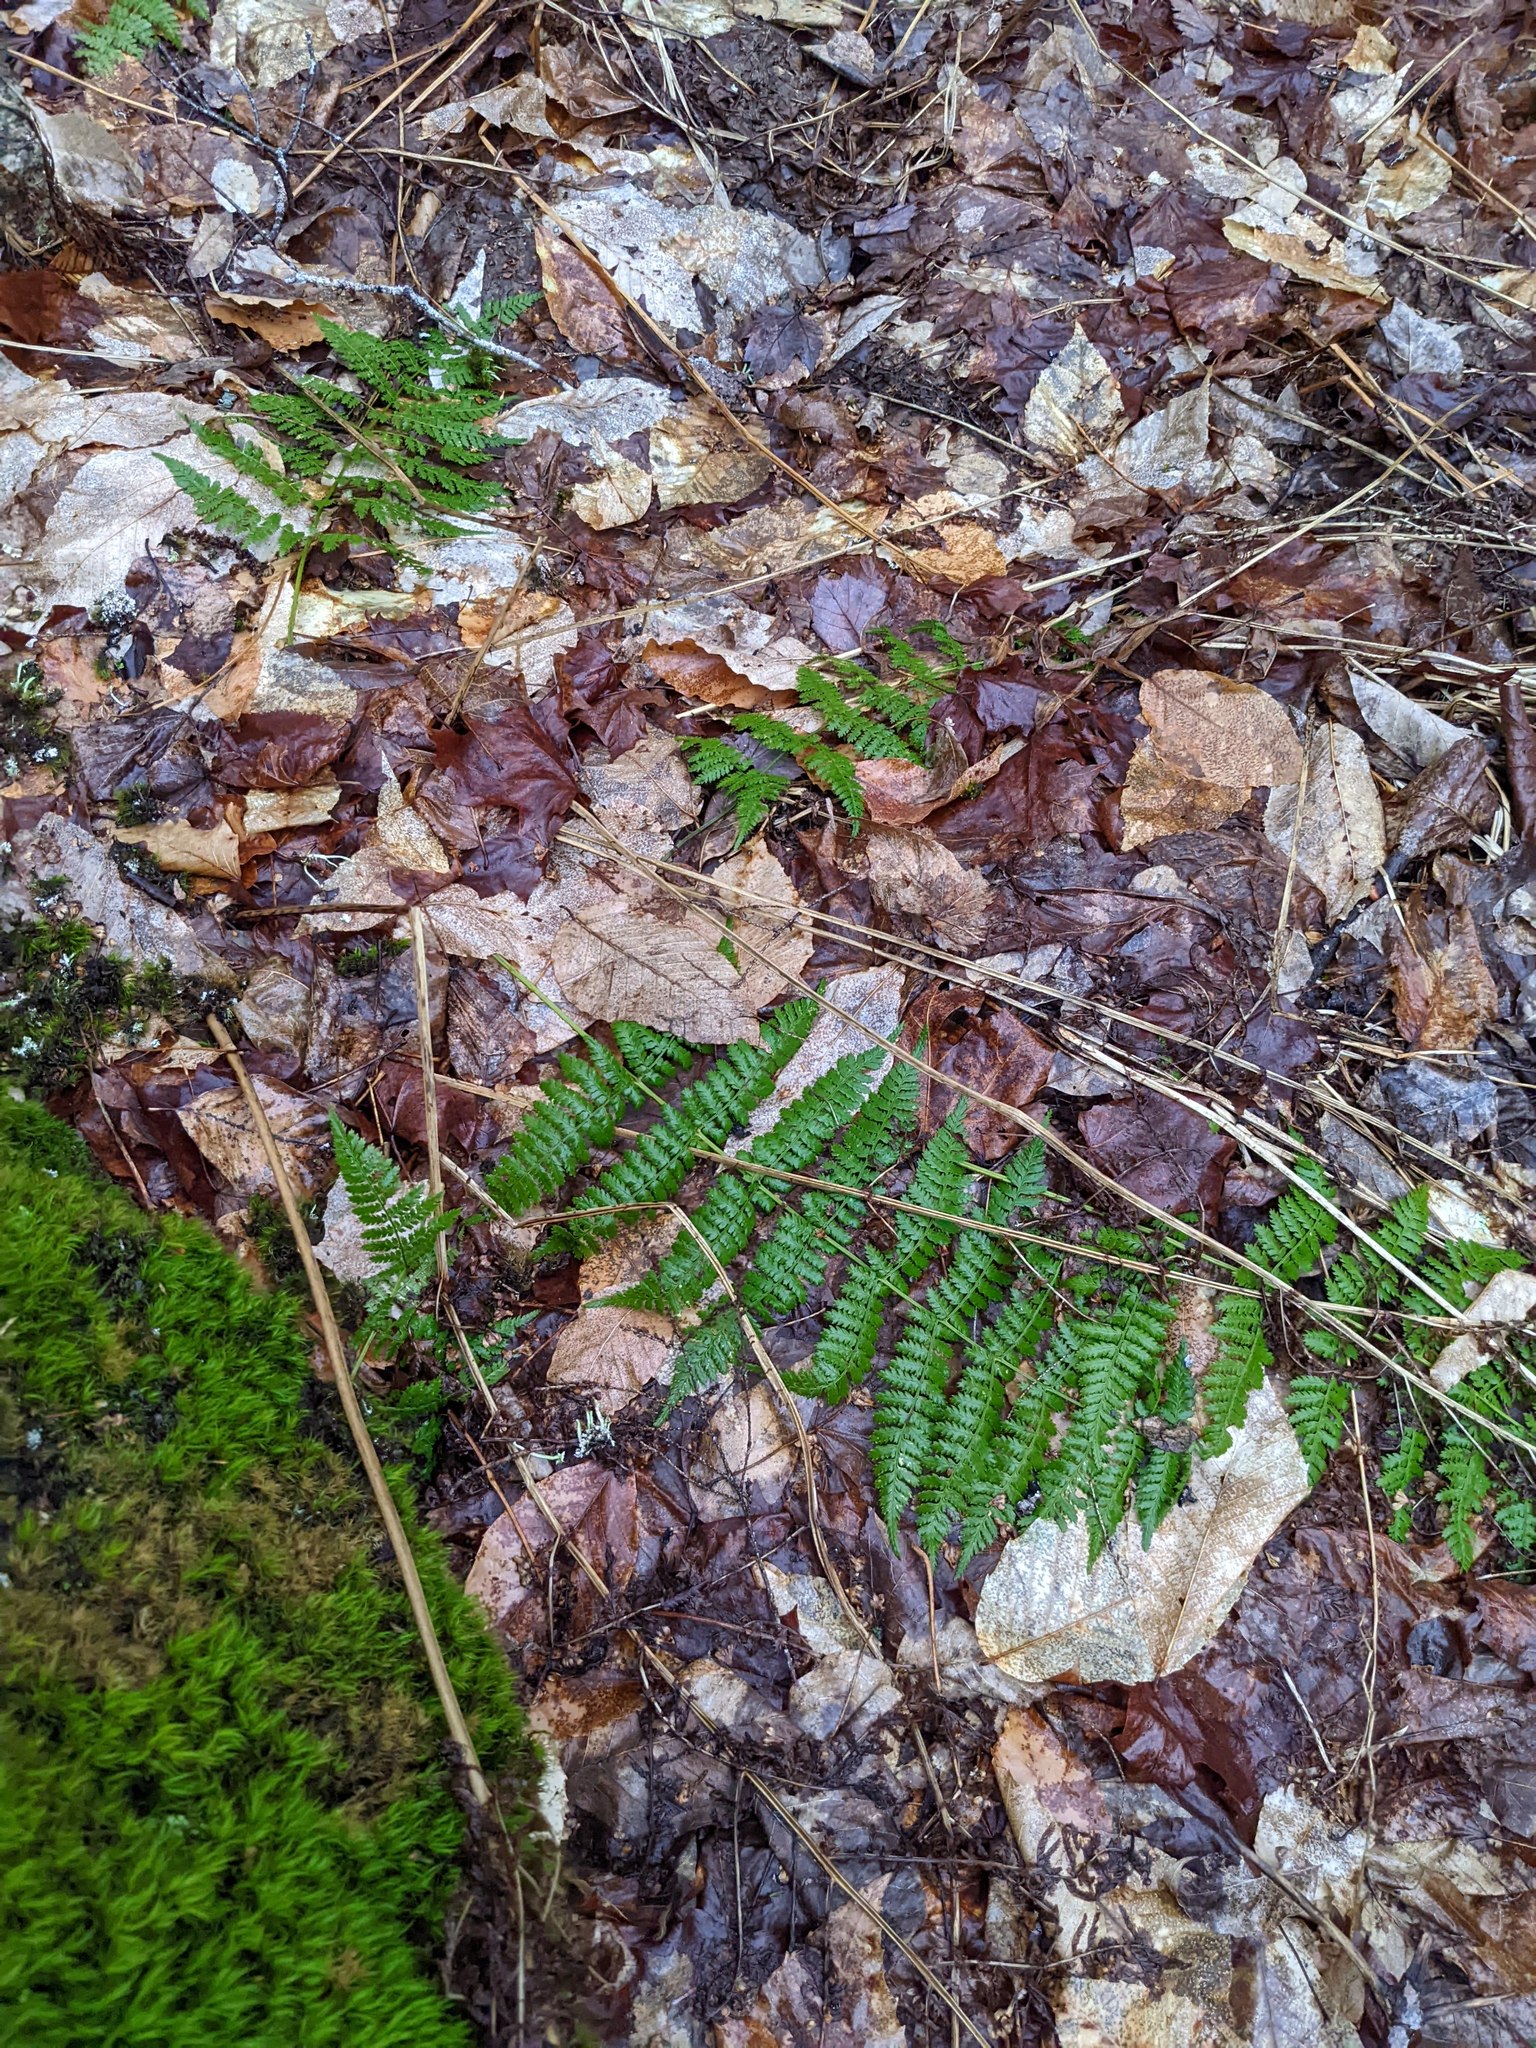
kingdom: Plantae
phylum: Tracheophyta
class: Polypodiopsida
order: Polypodiales
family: Dryopteridaceae
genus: Dryopteris
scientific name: Dryopteris intermedia
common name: Evergreen wood fern
